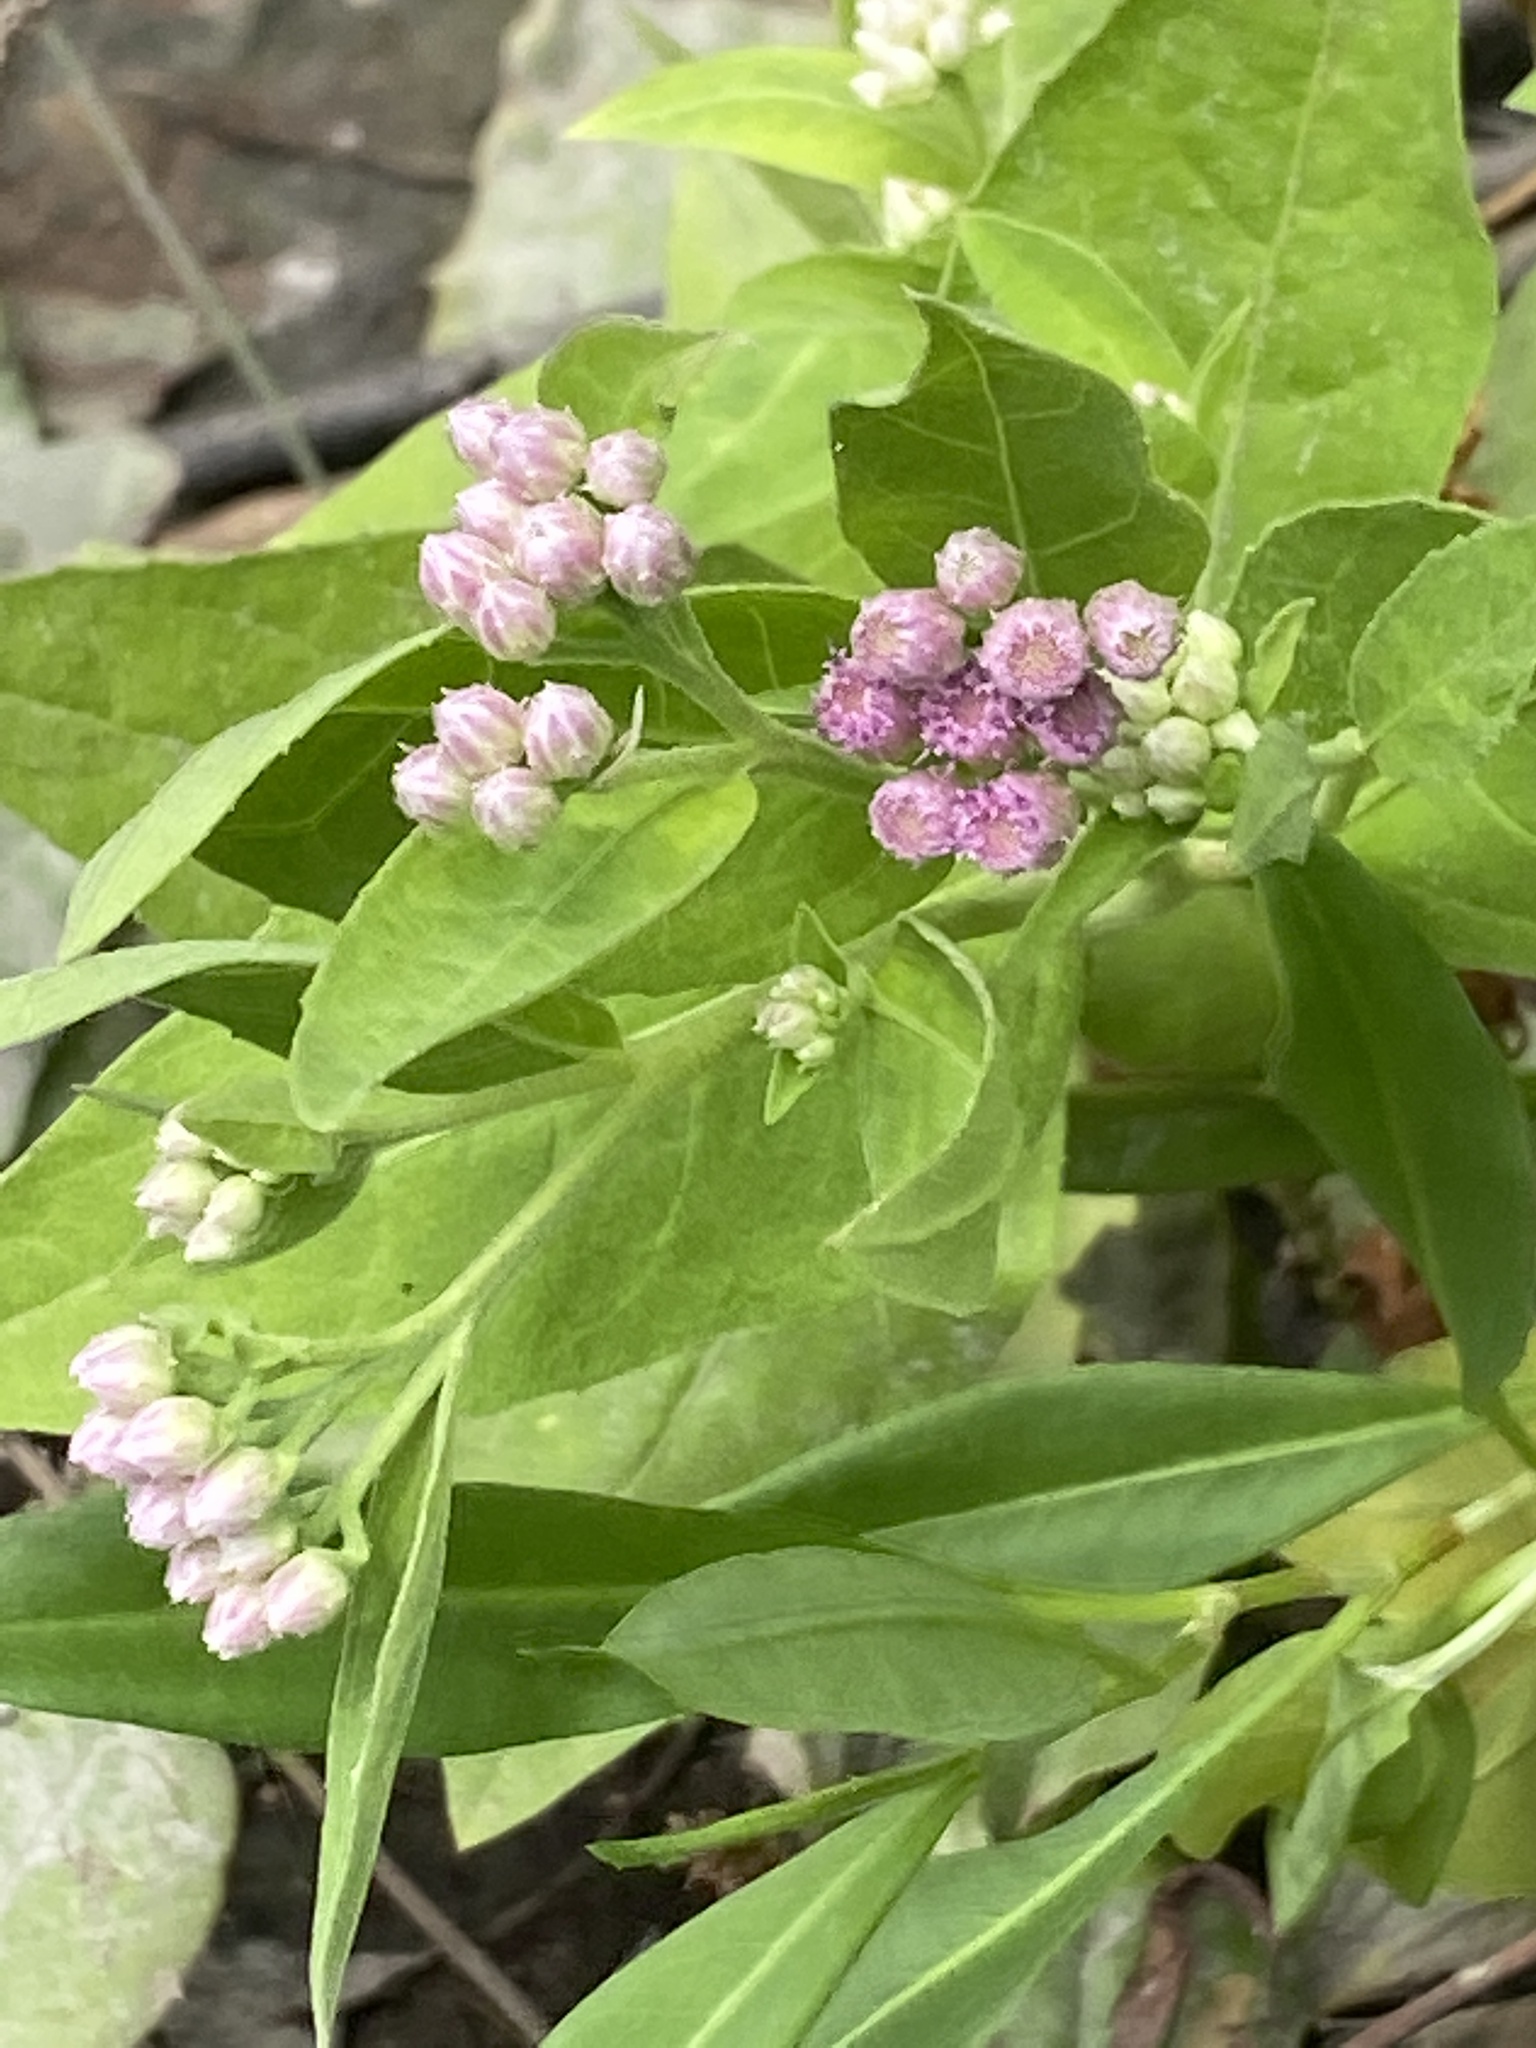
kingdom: Plantae
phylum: Tracheophyta
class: Magnoliopsida
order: Asterales
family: Asteraceae
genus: Pluchea
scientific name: Pluchea odorata
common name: Saltmarsh fleabane
